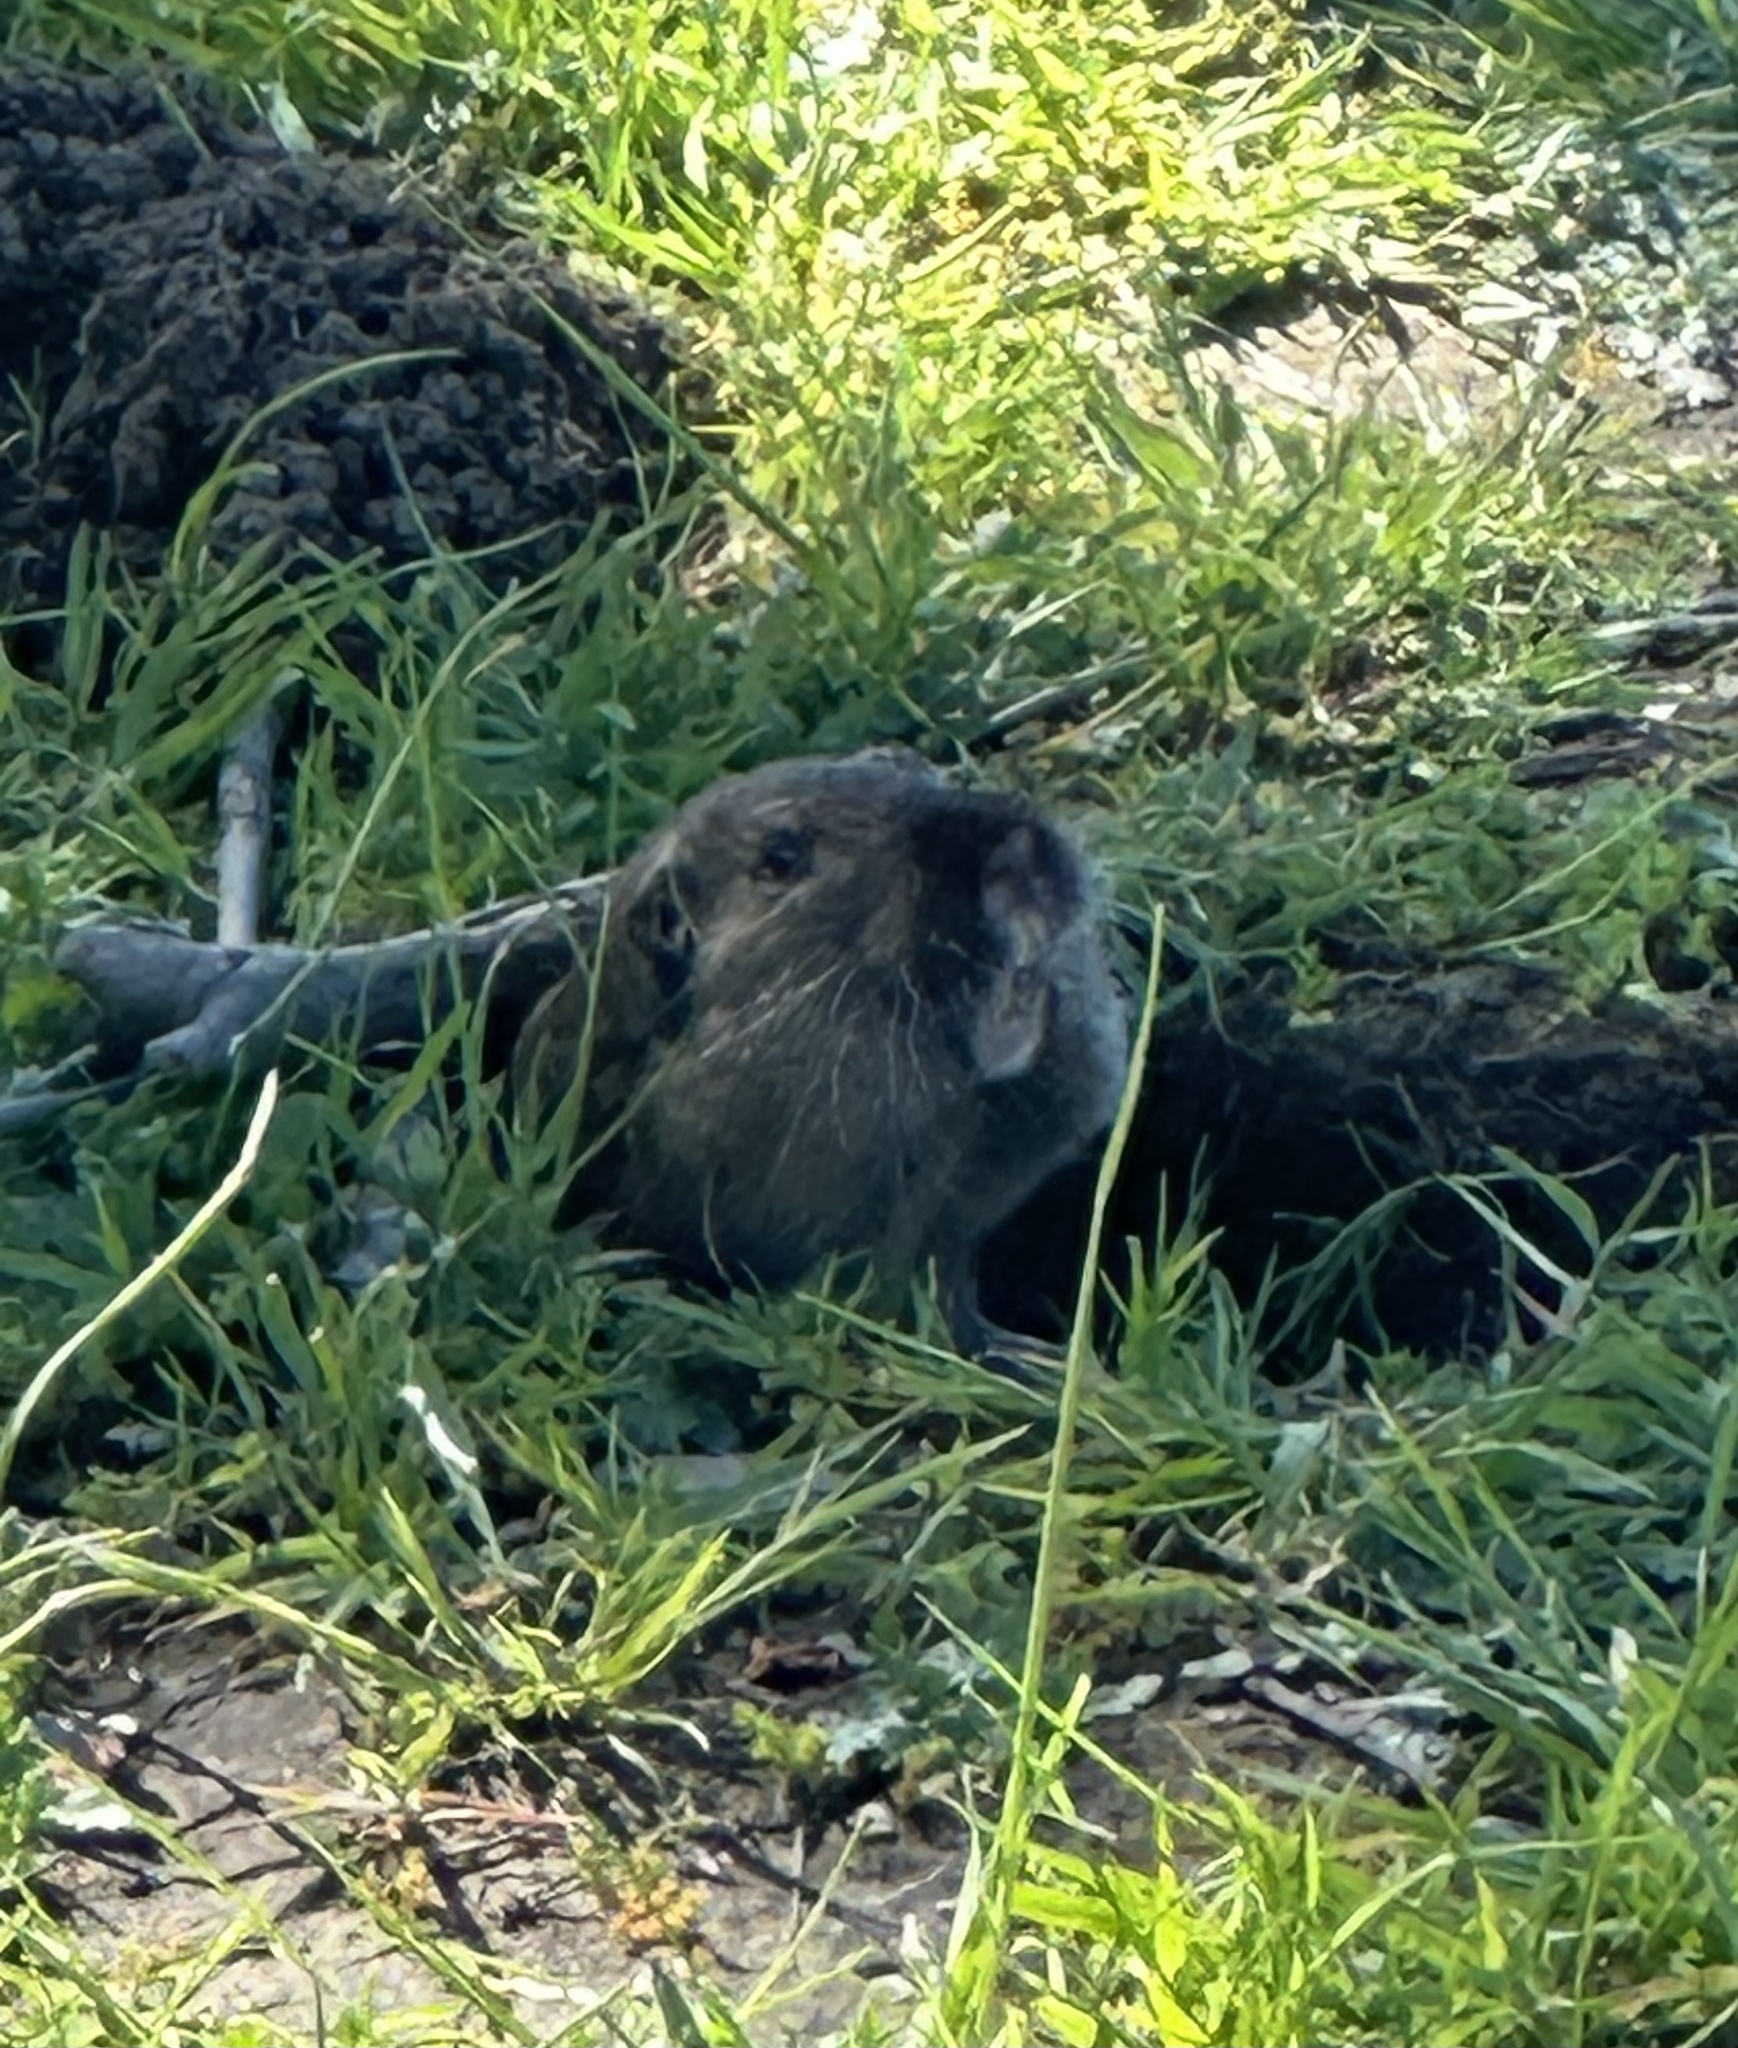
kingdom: Animalia
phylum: Chordata
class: Mammalia
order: Rodentia
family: Geomyidae
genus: Thomomys
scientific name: Thomomys bottae
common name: Botta's pocket gopher
